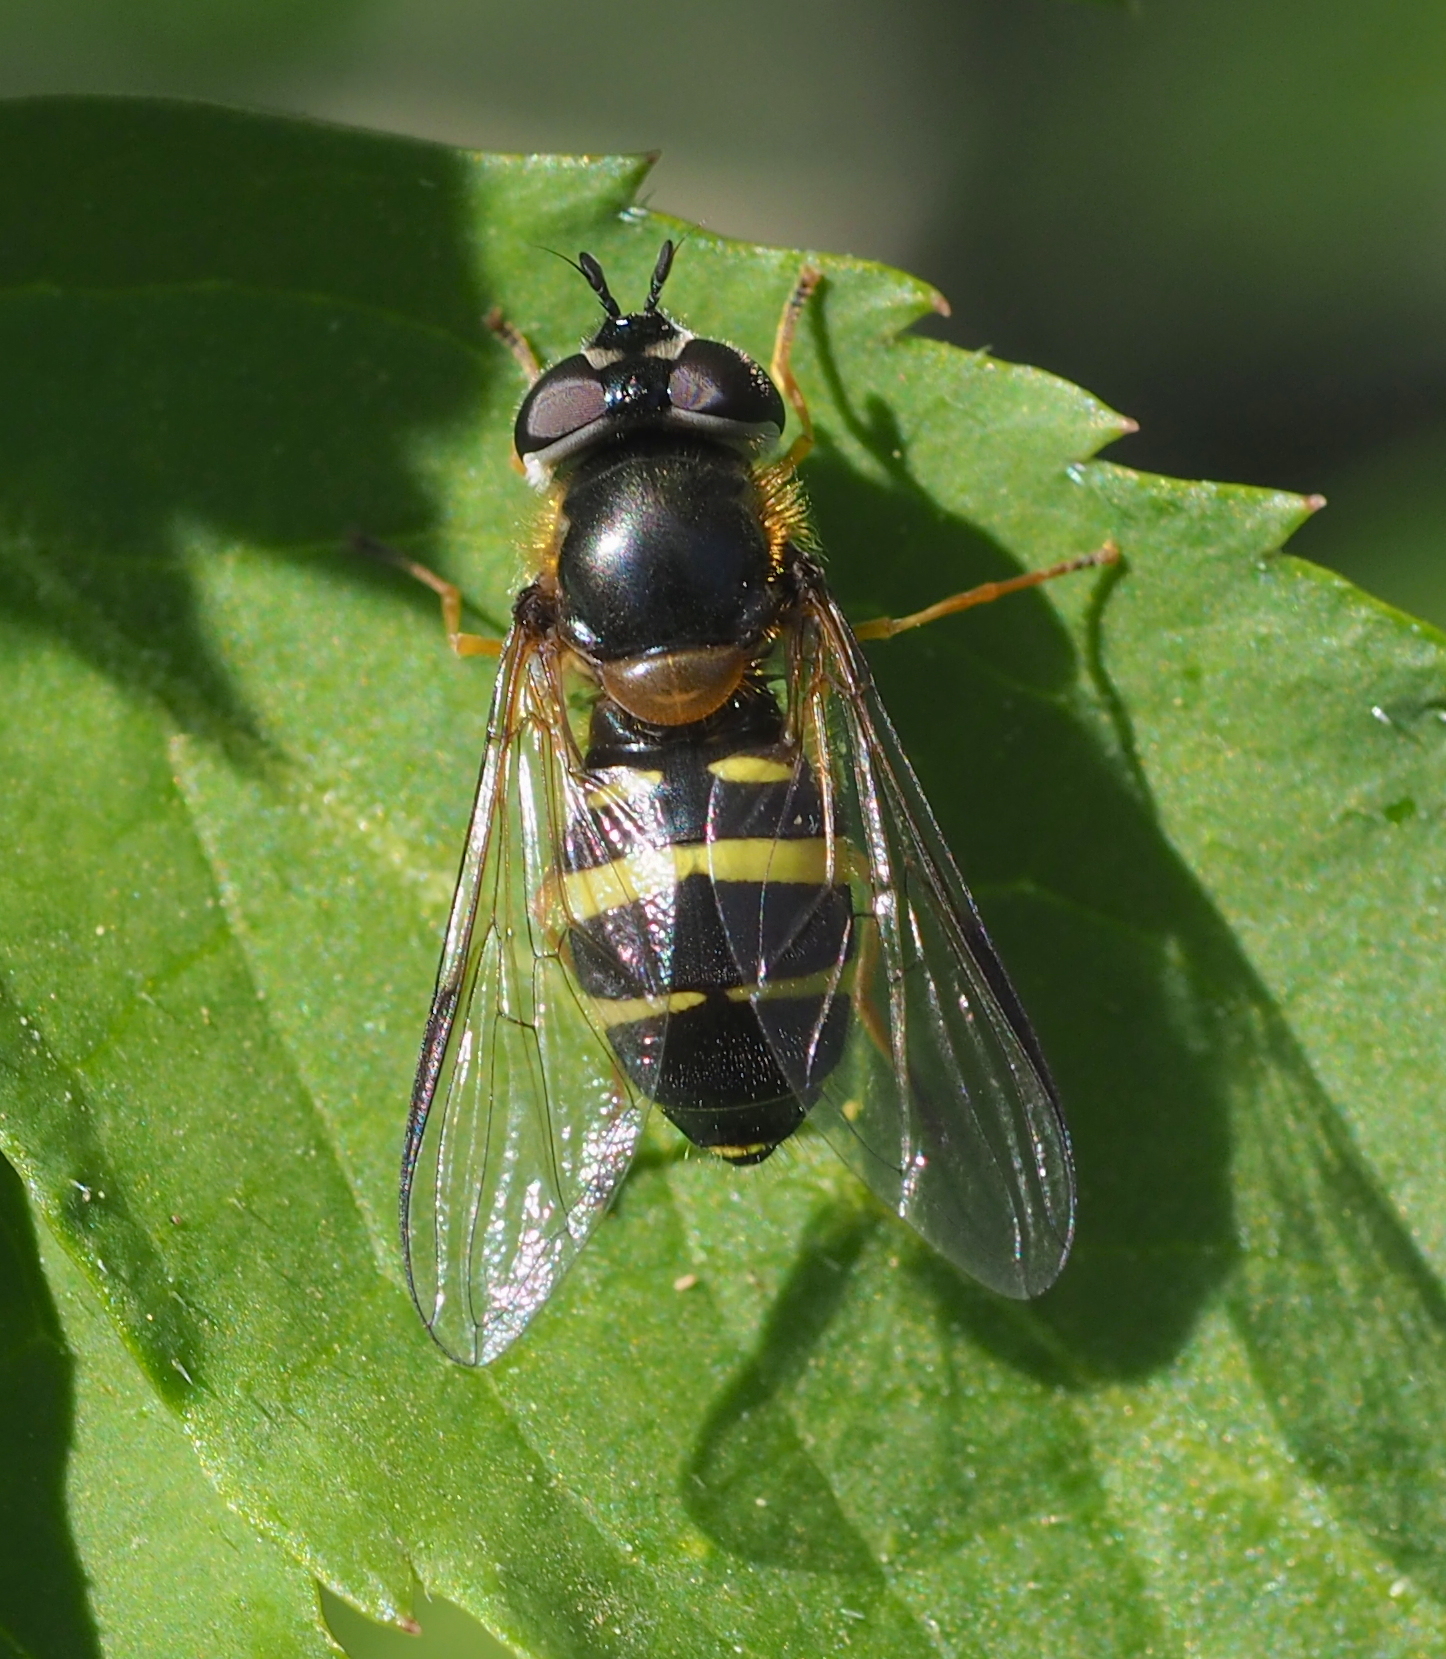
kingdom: Animalia
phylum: Arthropoda
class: Insecta
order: Diptera
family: Syrphidae
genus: Dasysyrphus
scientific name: Dasysyrphus tricinctus
